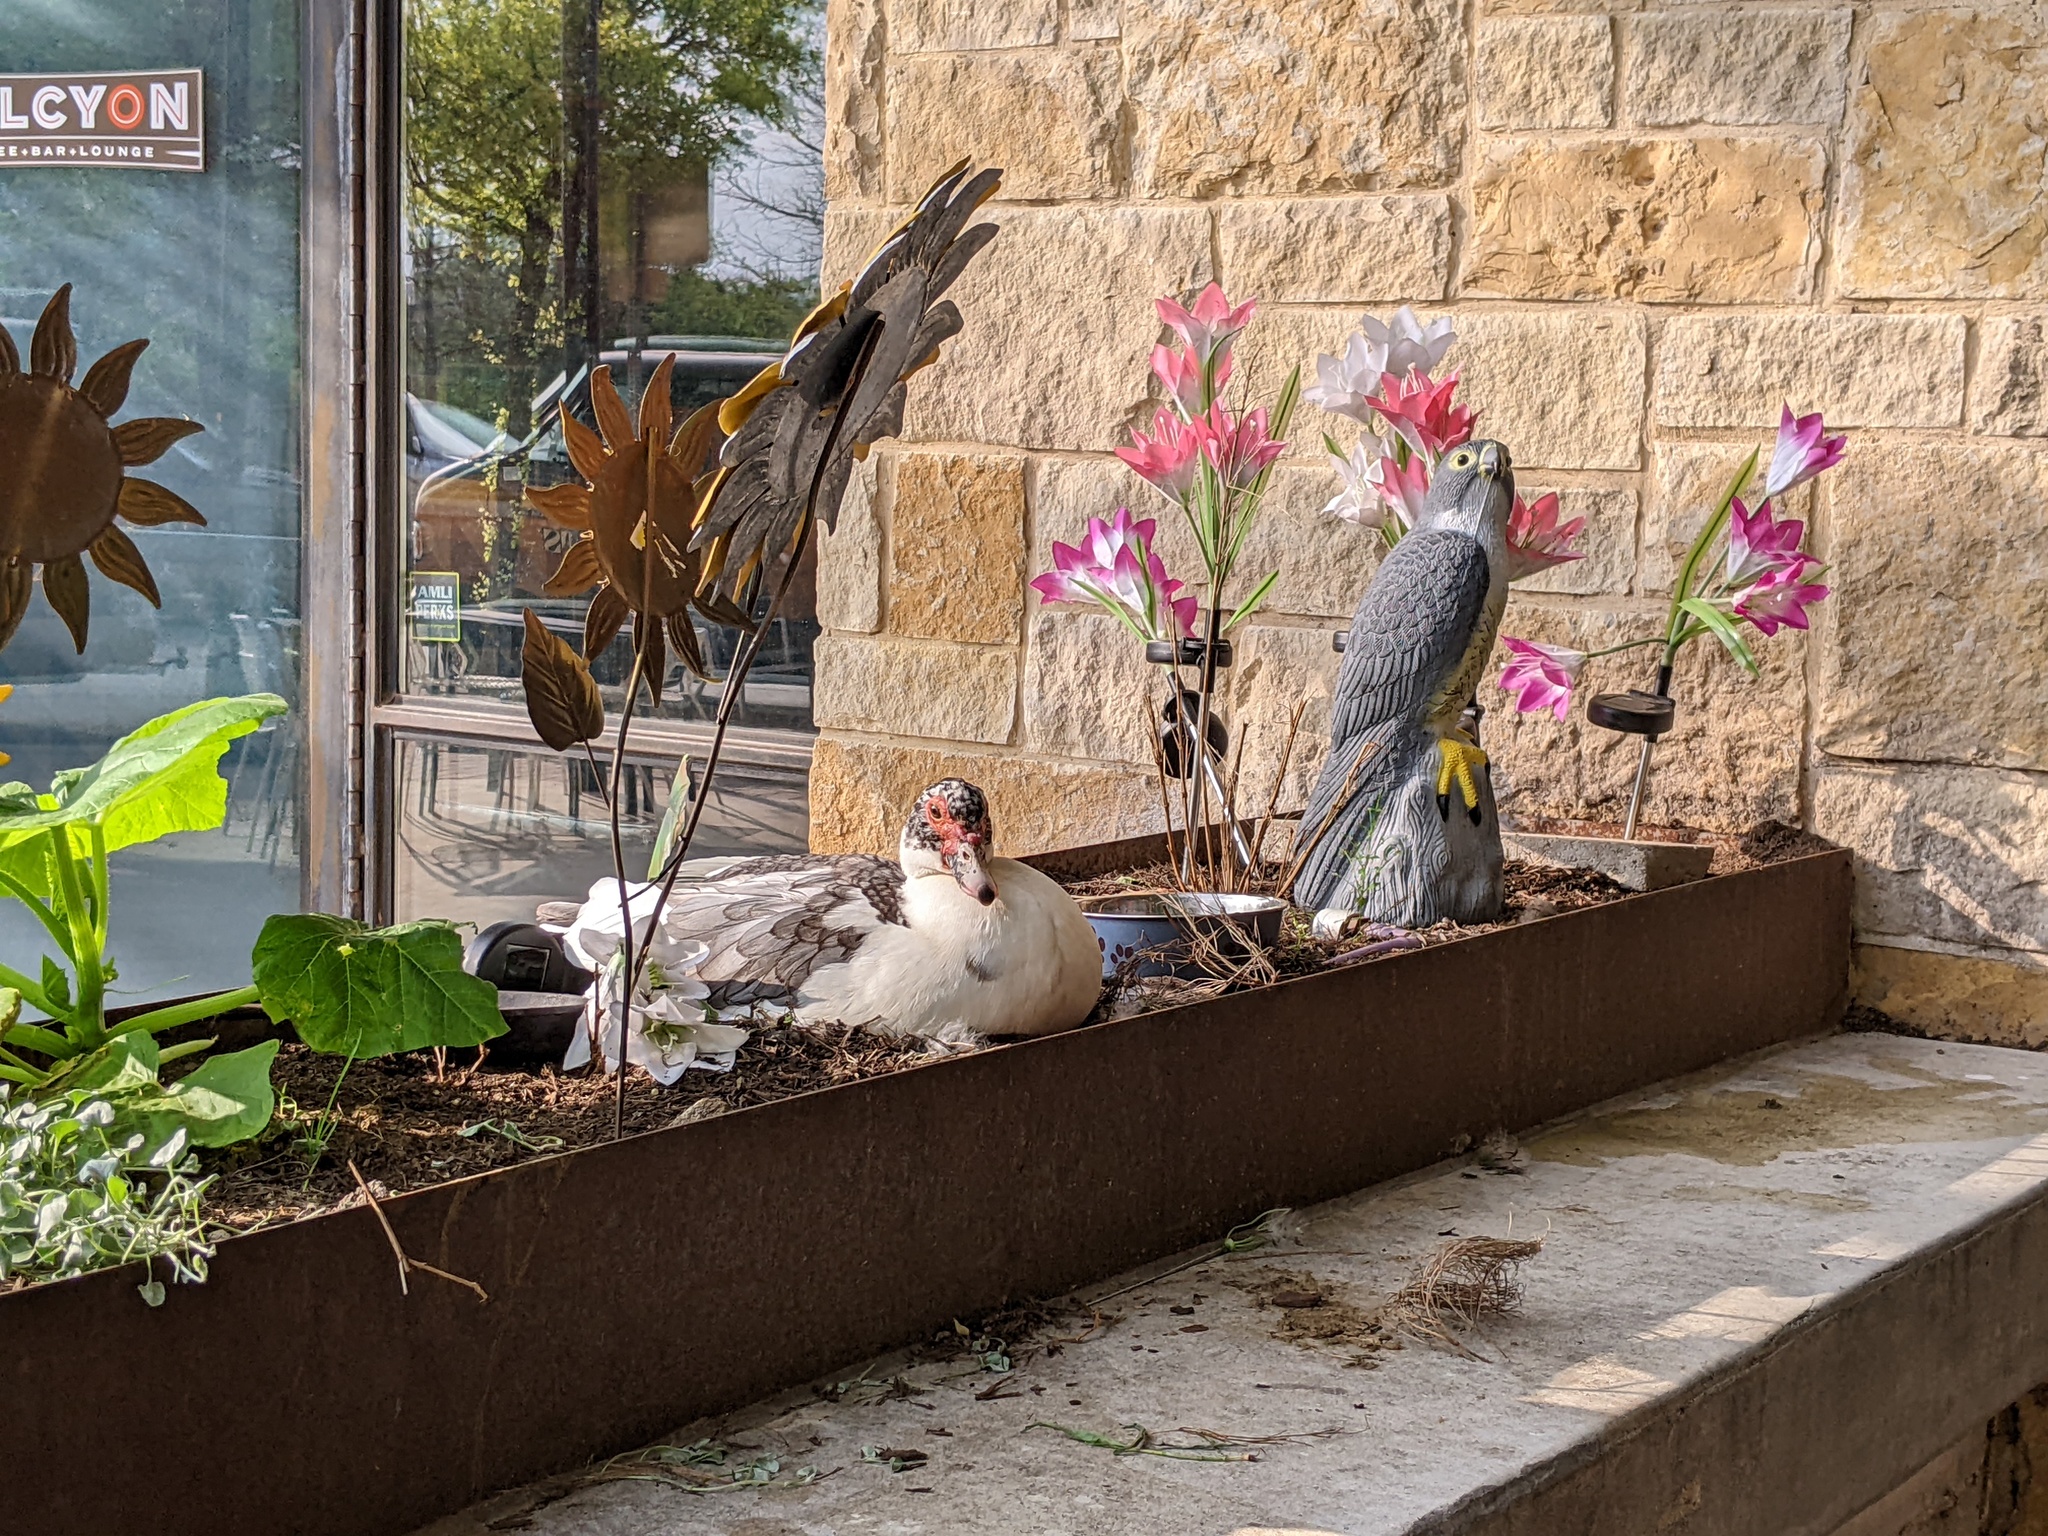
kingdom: Animalia
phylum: Chordata
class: Aves
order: Anseriformes
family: Anatidae
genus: Cairina
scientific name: Cairina moschata
